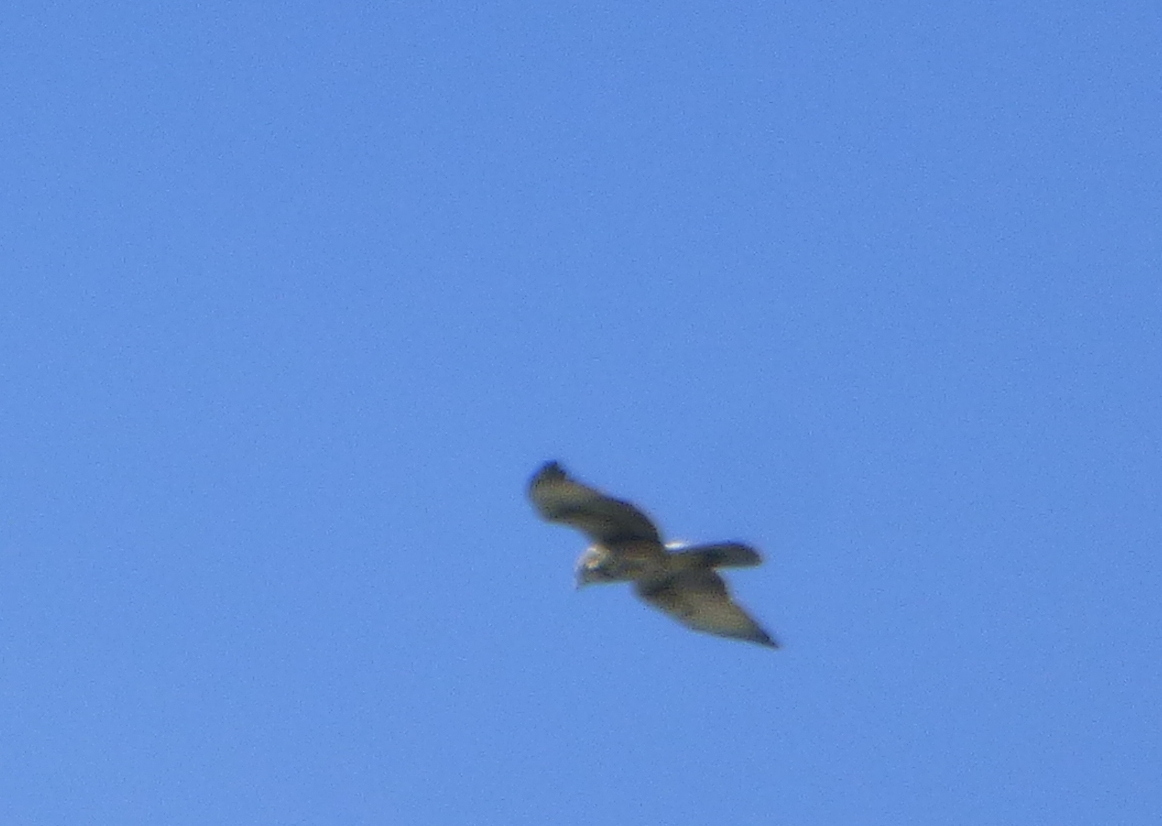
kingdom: Animalia
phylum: Chordata
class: Aves
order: Accipitriformes
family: Accipitridae
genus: Parabuteo
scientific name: Parabuteo unicinctus
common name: Harris's hawk
